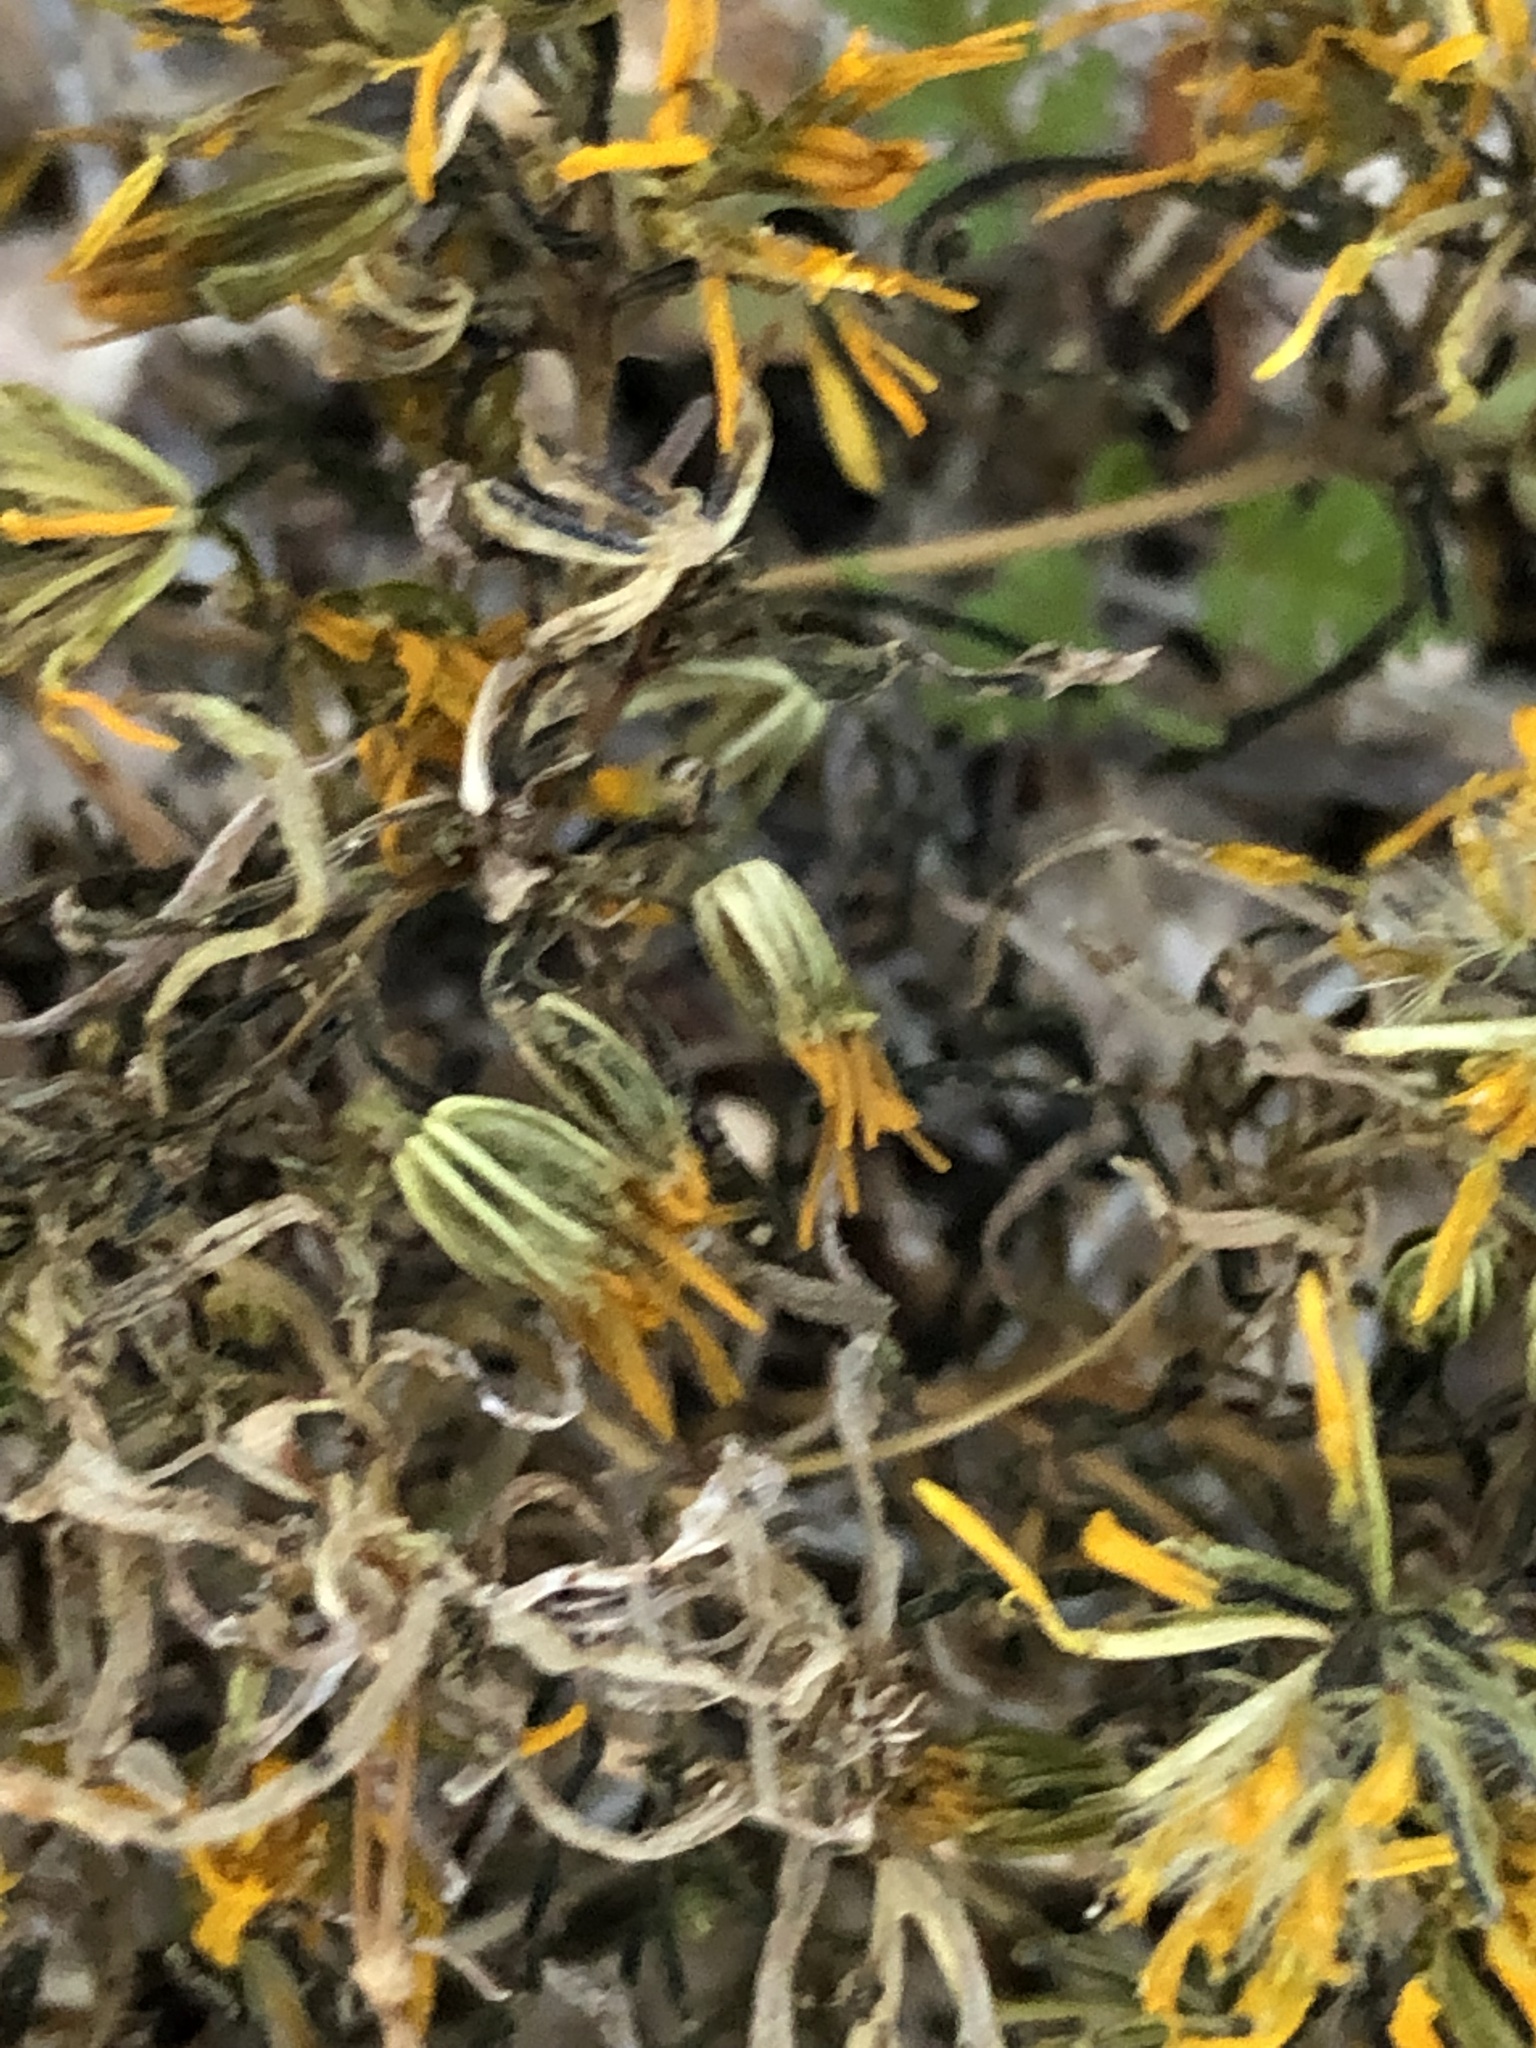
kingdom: Plantae
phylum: Tracheophyta
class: Magnoliopsida
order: Asterales
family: Asteraceae
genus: Pectis
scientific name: Pectis papposa
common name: Many-bristle chinchweed
